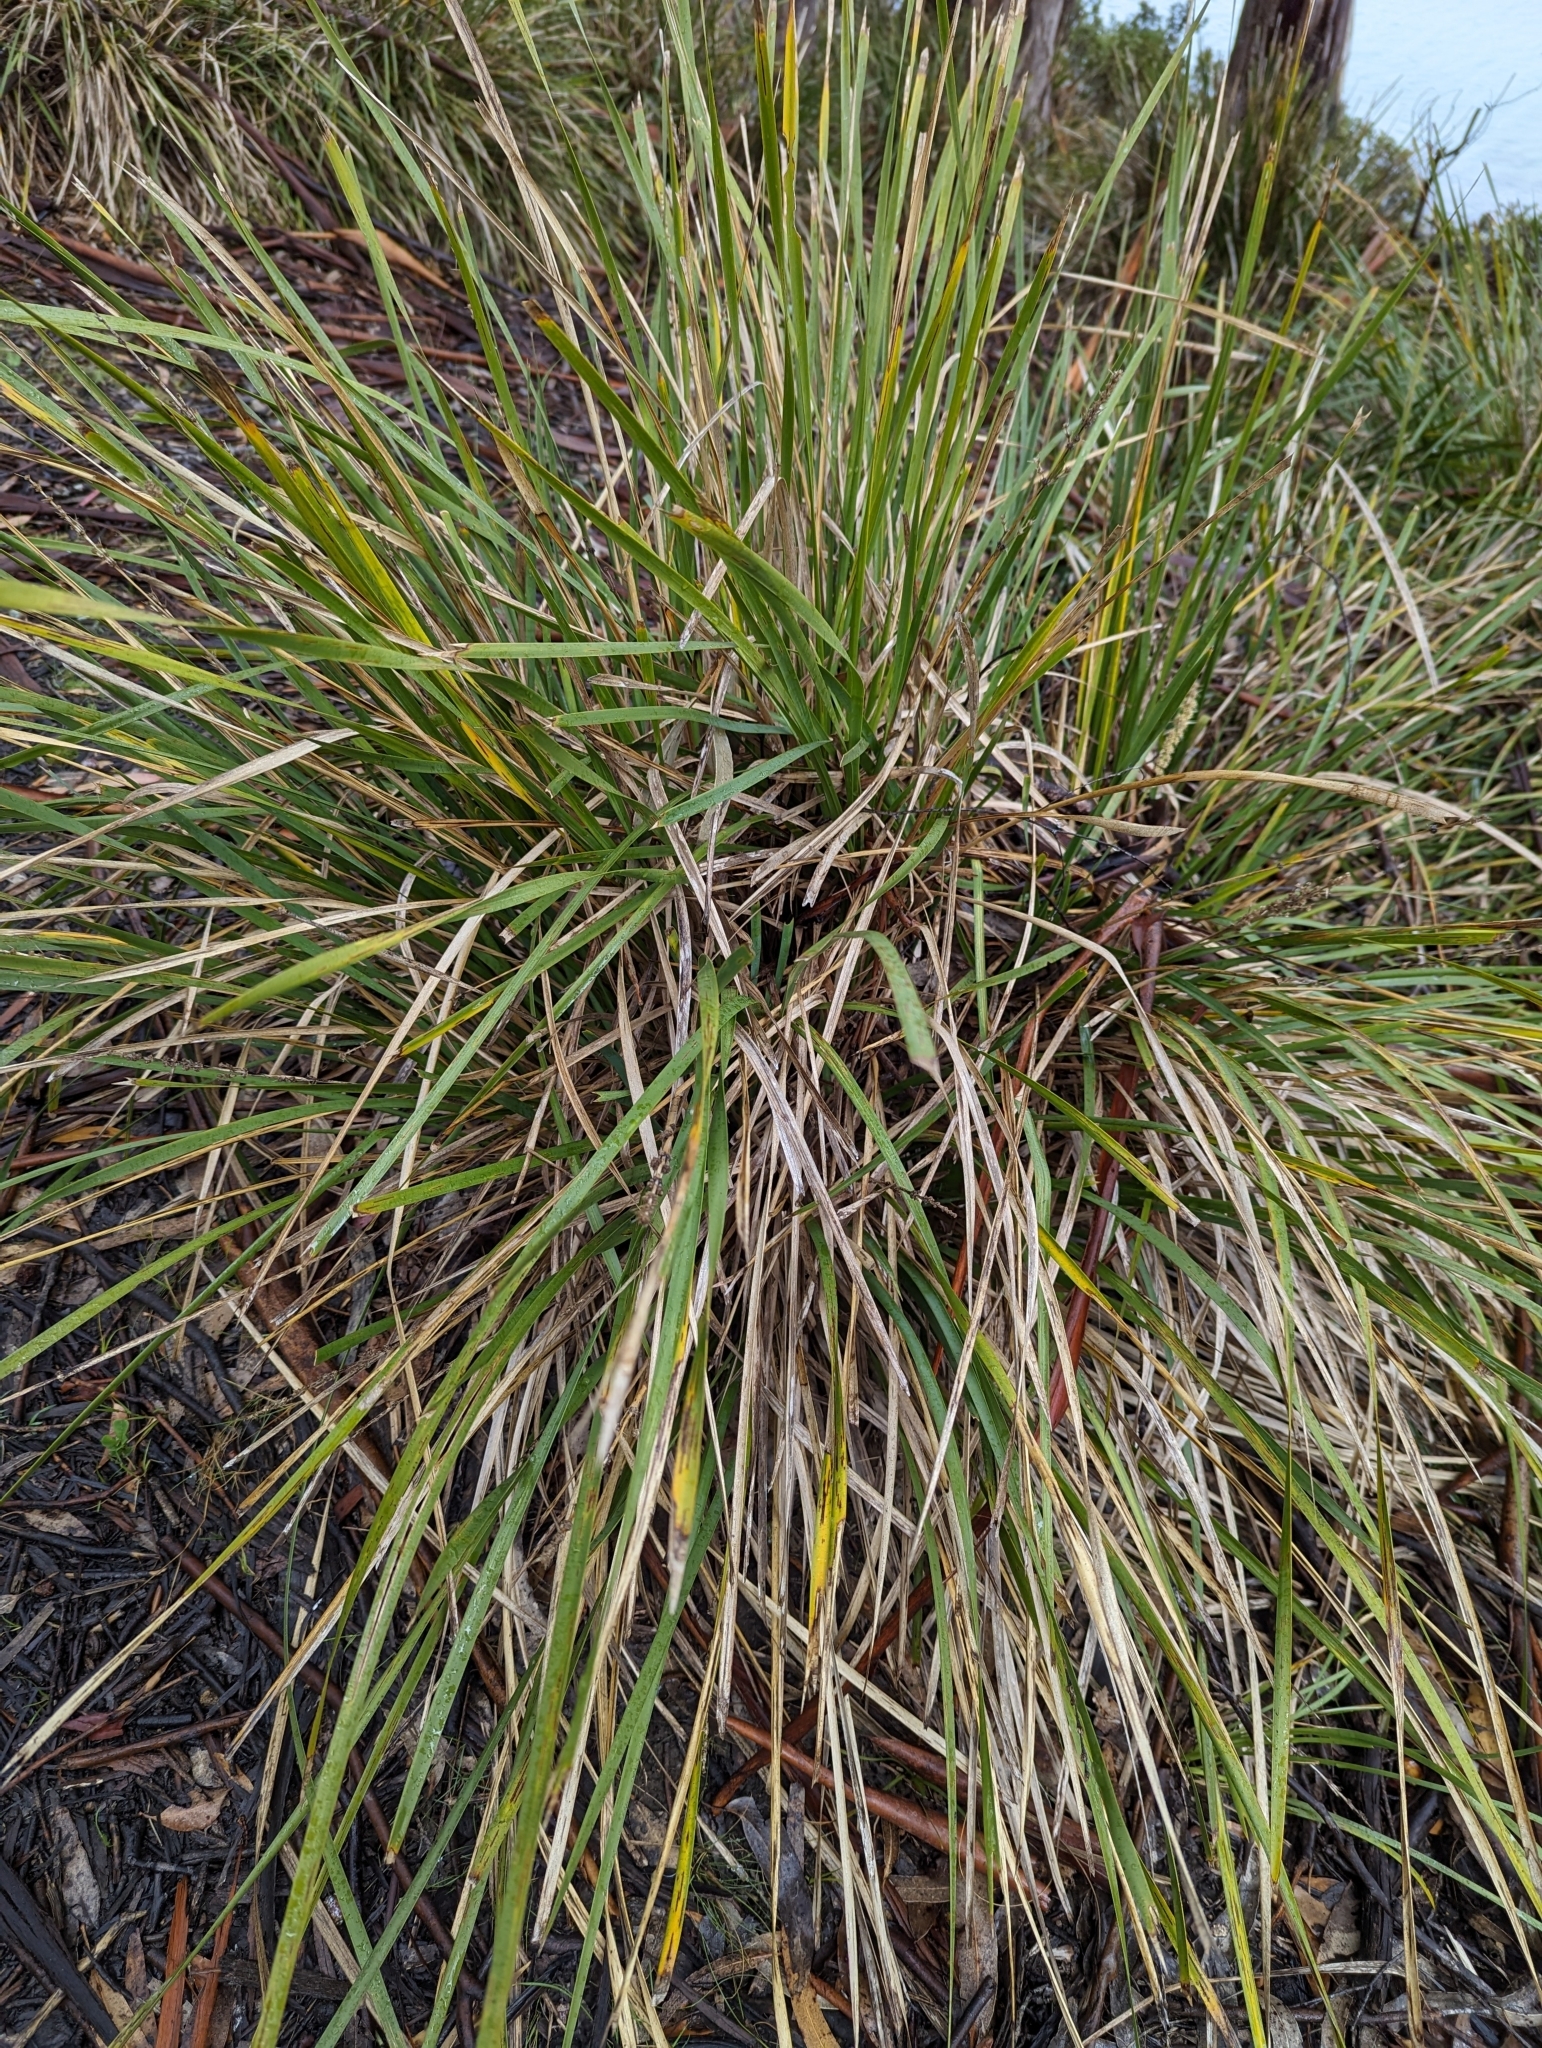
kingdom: Plantae
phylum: Tracheophyta
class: Liliopsida
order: Asparagales
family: Asparagaceae
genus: Lomandra
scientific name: Lomandra longifolia
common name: Longleaf mat-rush
